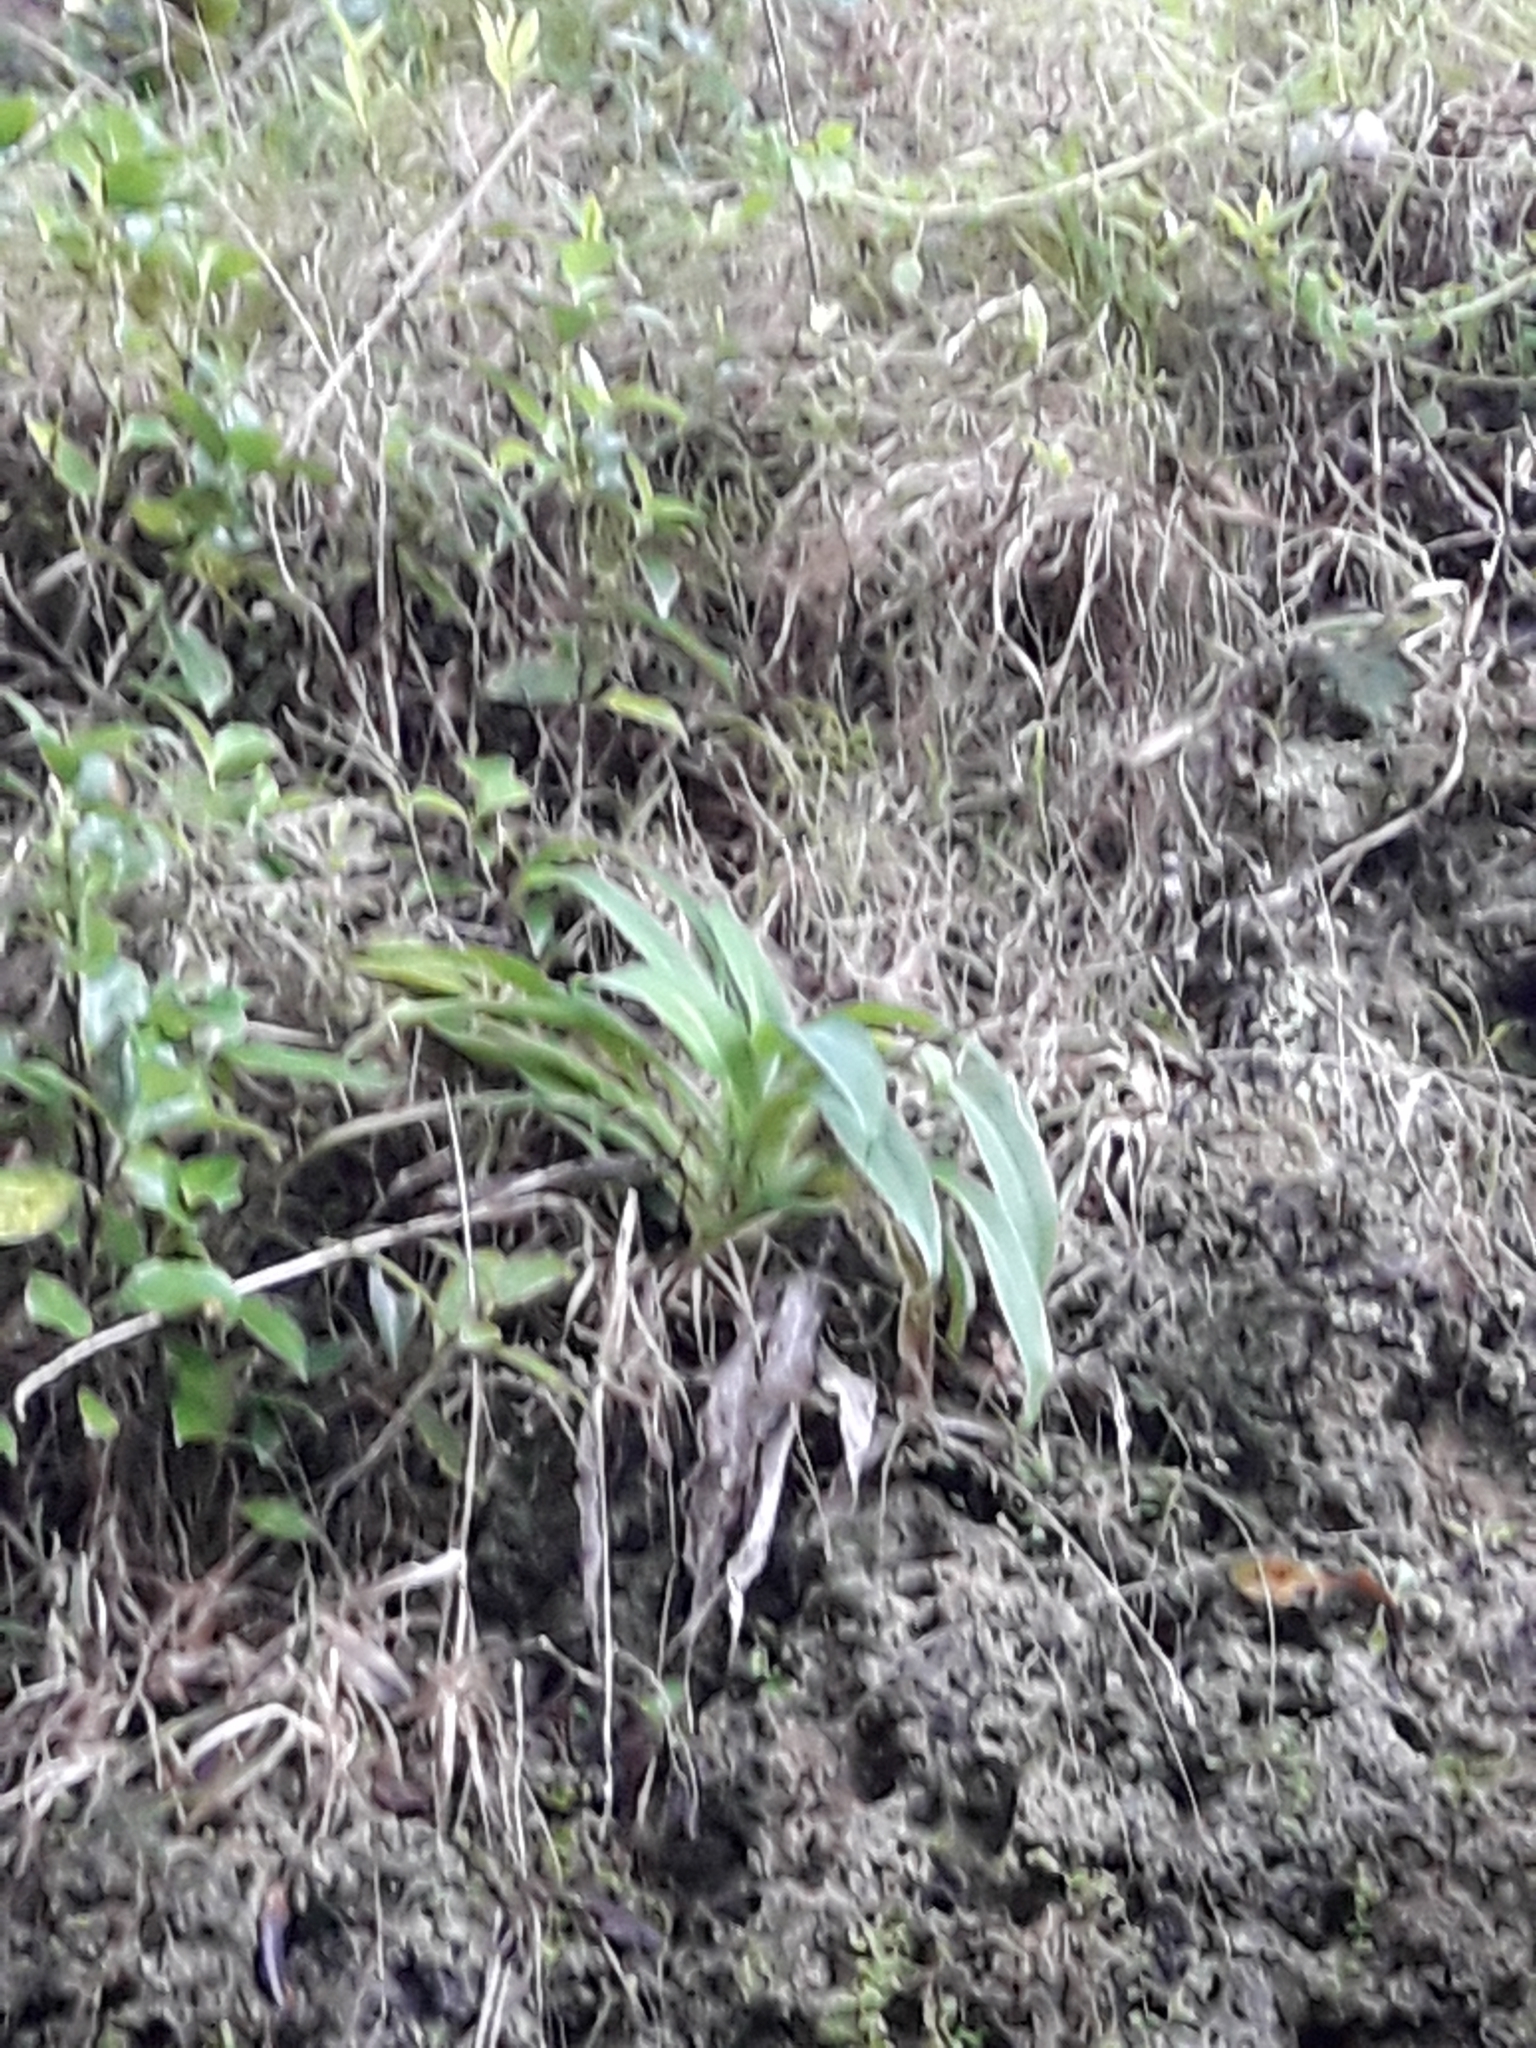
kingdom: Plantae
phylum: Tracheophyta
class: Liliopsida
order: Asparagales
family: Asparagaceae
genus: Arthropodium
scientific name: Arthropodium cirratum
